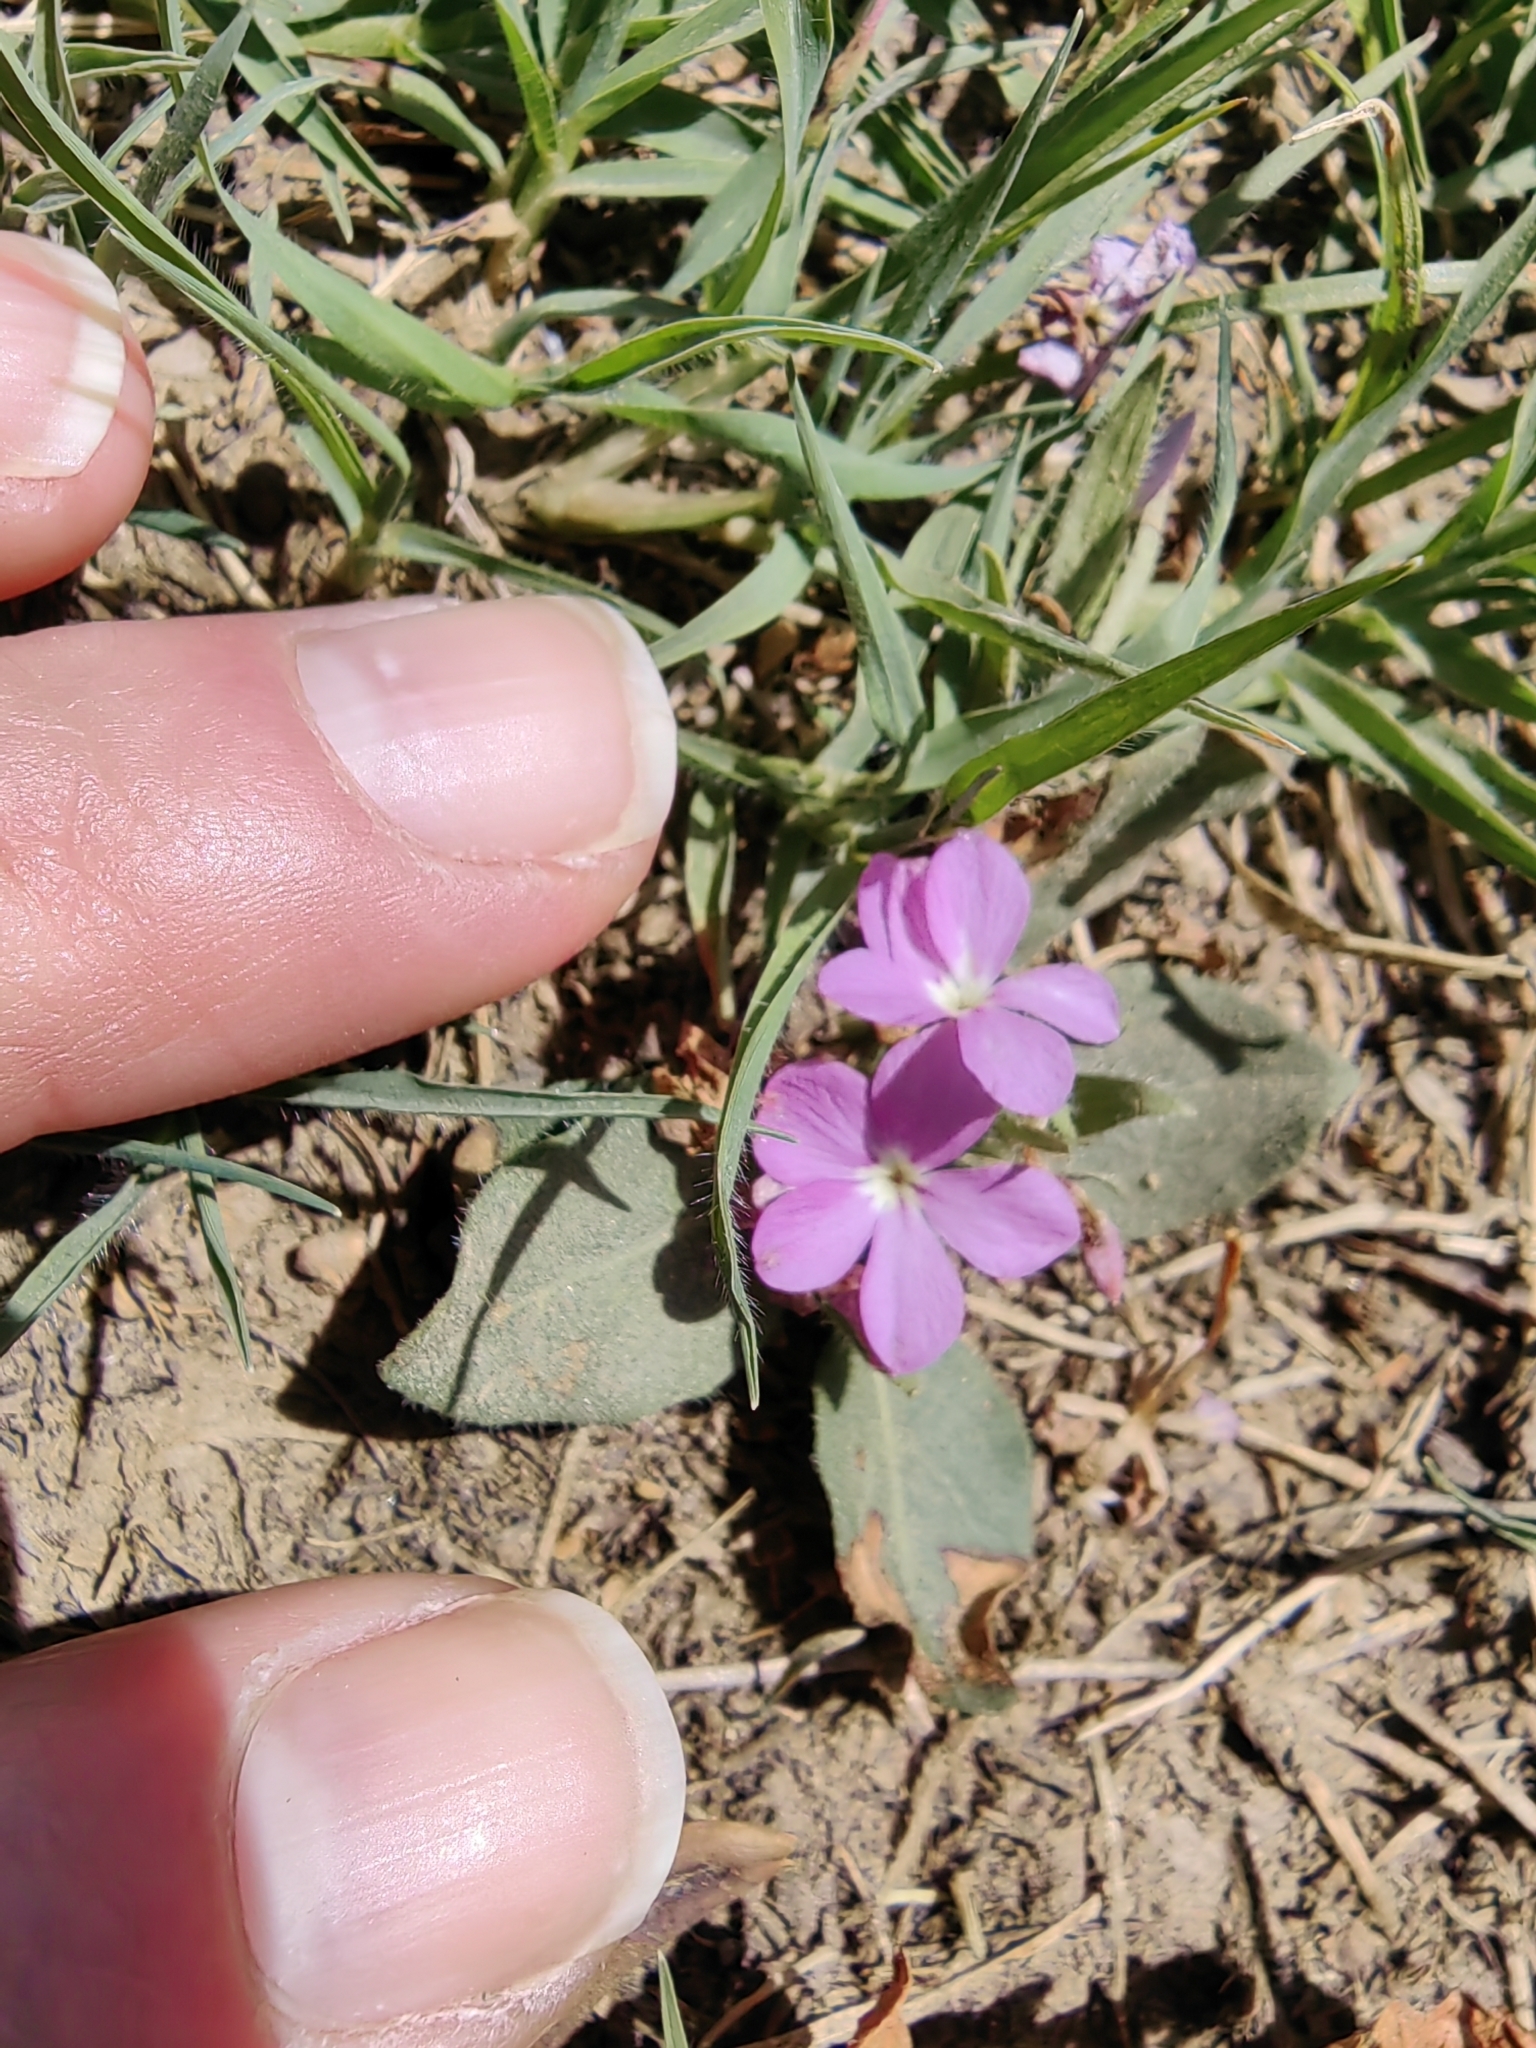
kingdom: Plantae
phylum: Tracheophyta
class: Magnoliopsida
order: Lamiales
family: Acanthaceae
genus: Stenandrium
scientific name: Stenandrium dulce
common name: Pinklet
